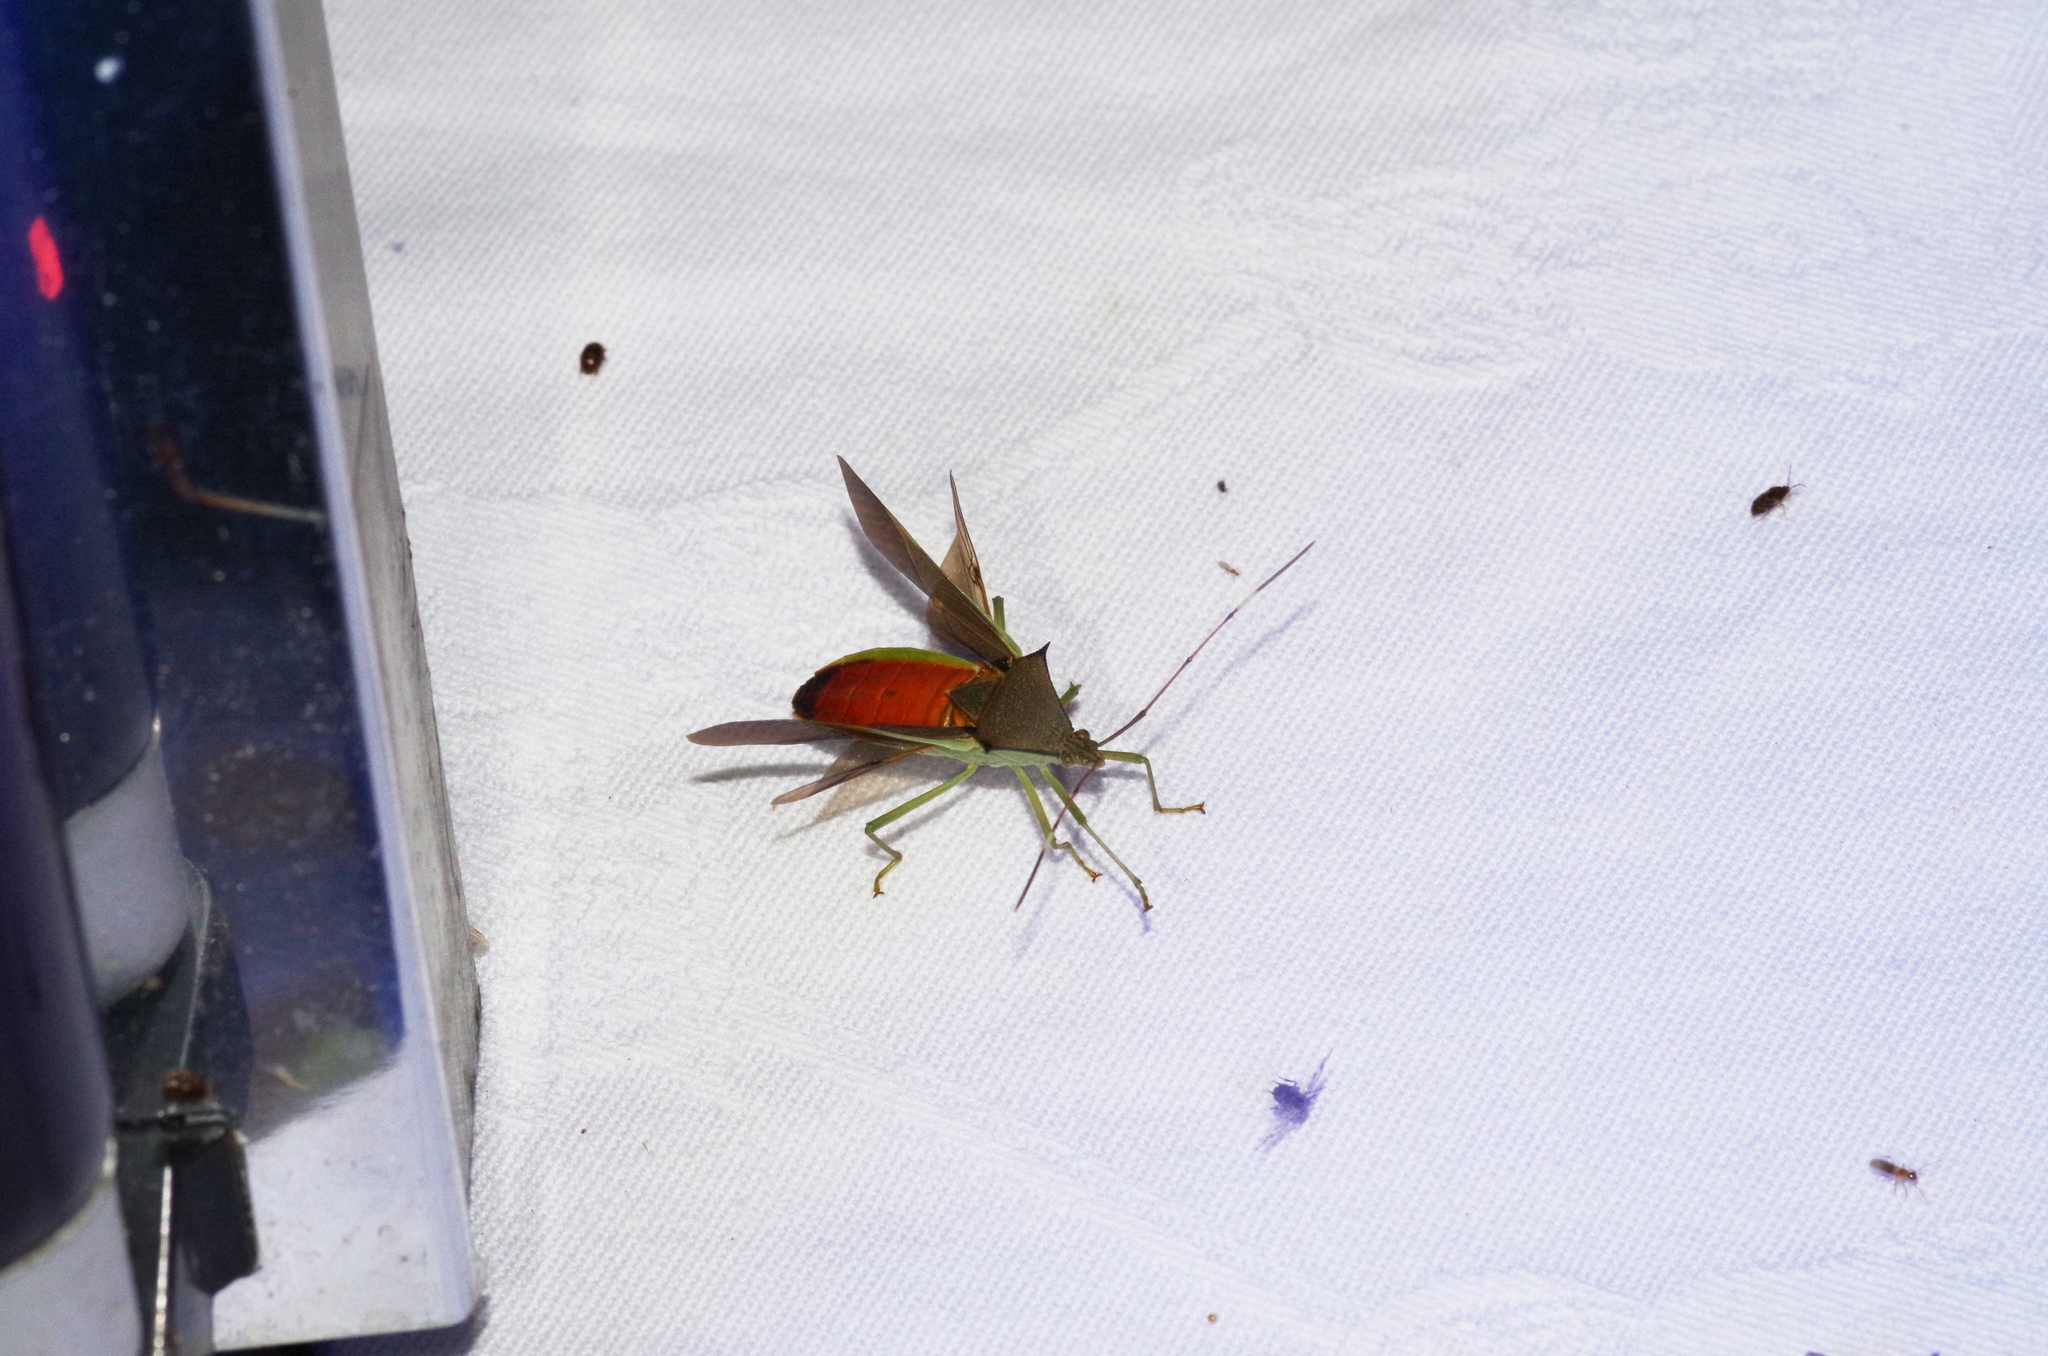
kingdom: Animalia
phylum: Arthropoda
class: Insecta
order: Hemiptera
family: Coreidae
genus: Paradasynus
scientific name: Paradasynus spinosus
